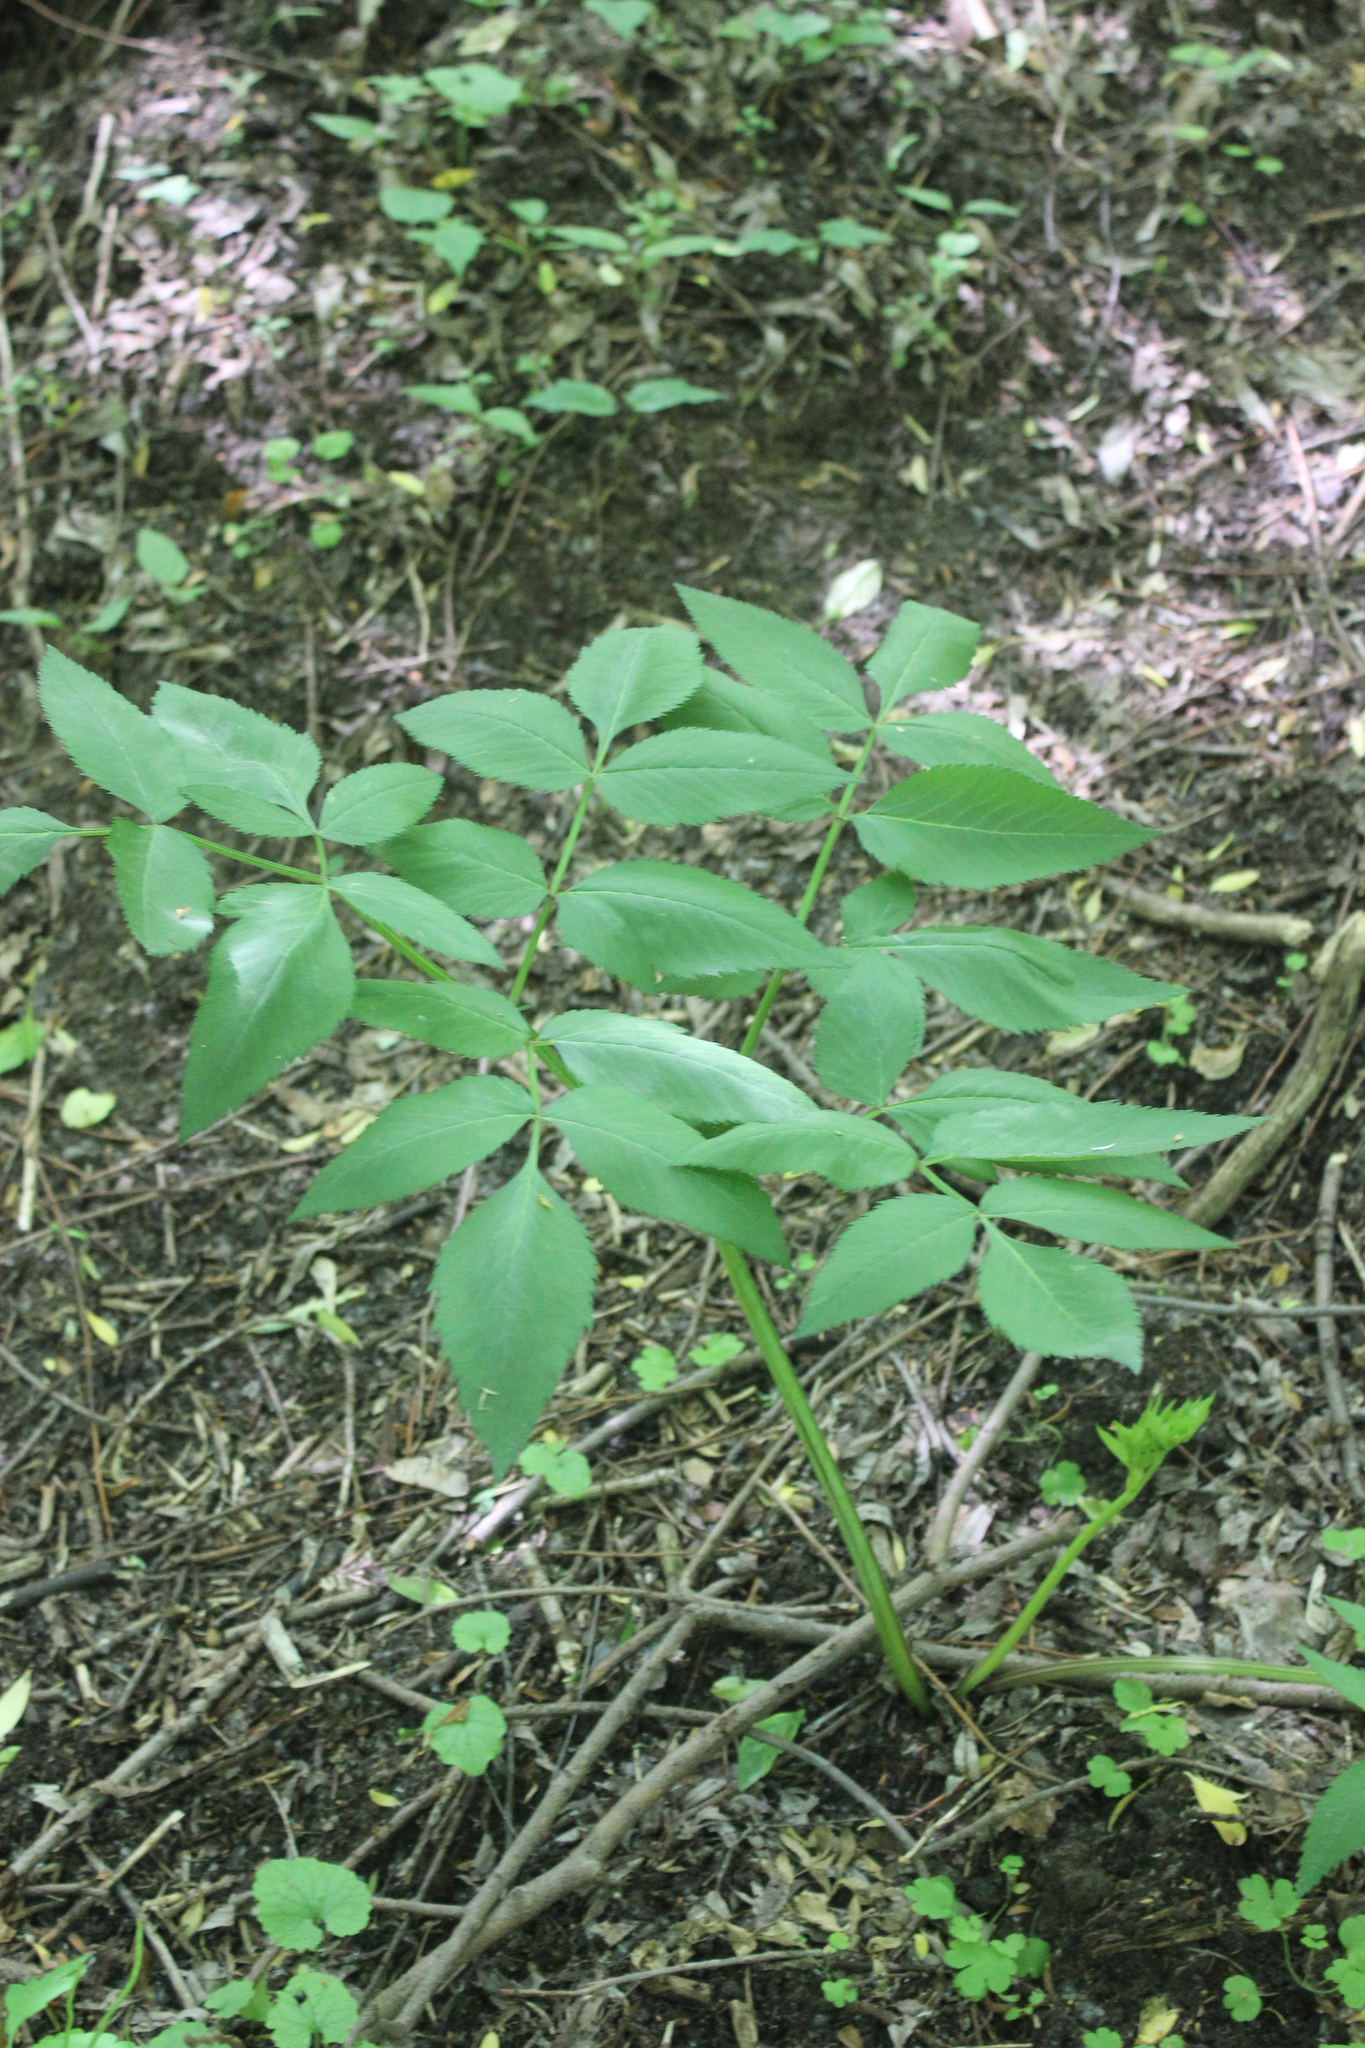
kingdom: Plantae
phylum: Tracheophyta
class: Magnoliopsida
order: Apiales
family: Apiaceae
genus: Angelica
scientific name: Angelica sylvestris
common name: Wild angelica
